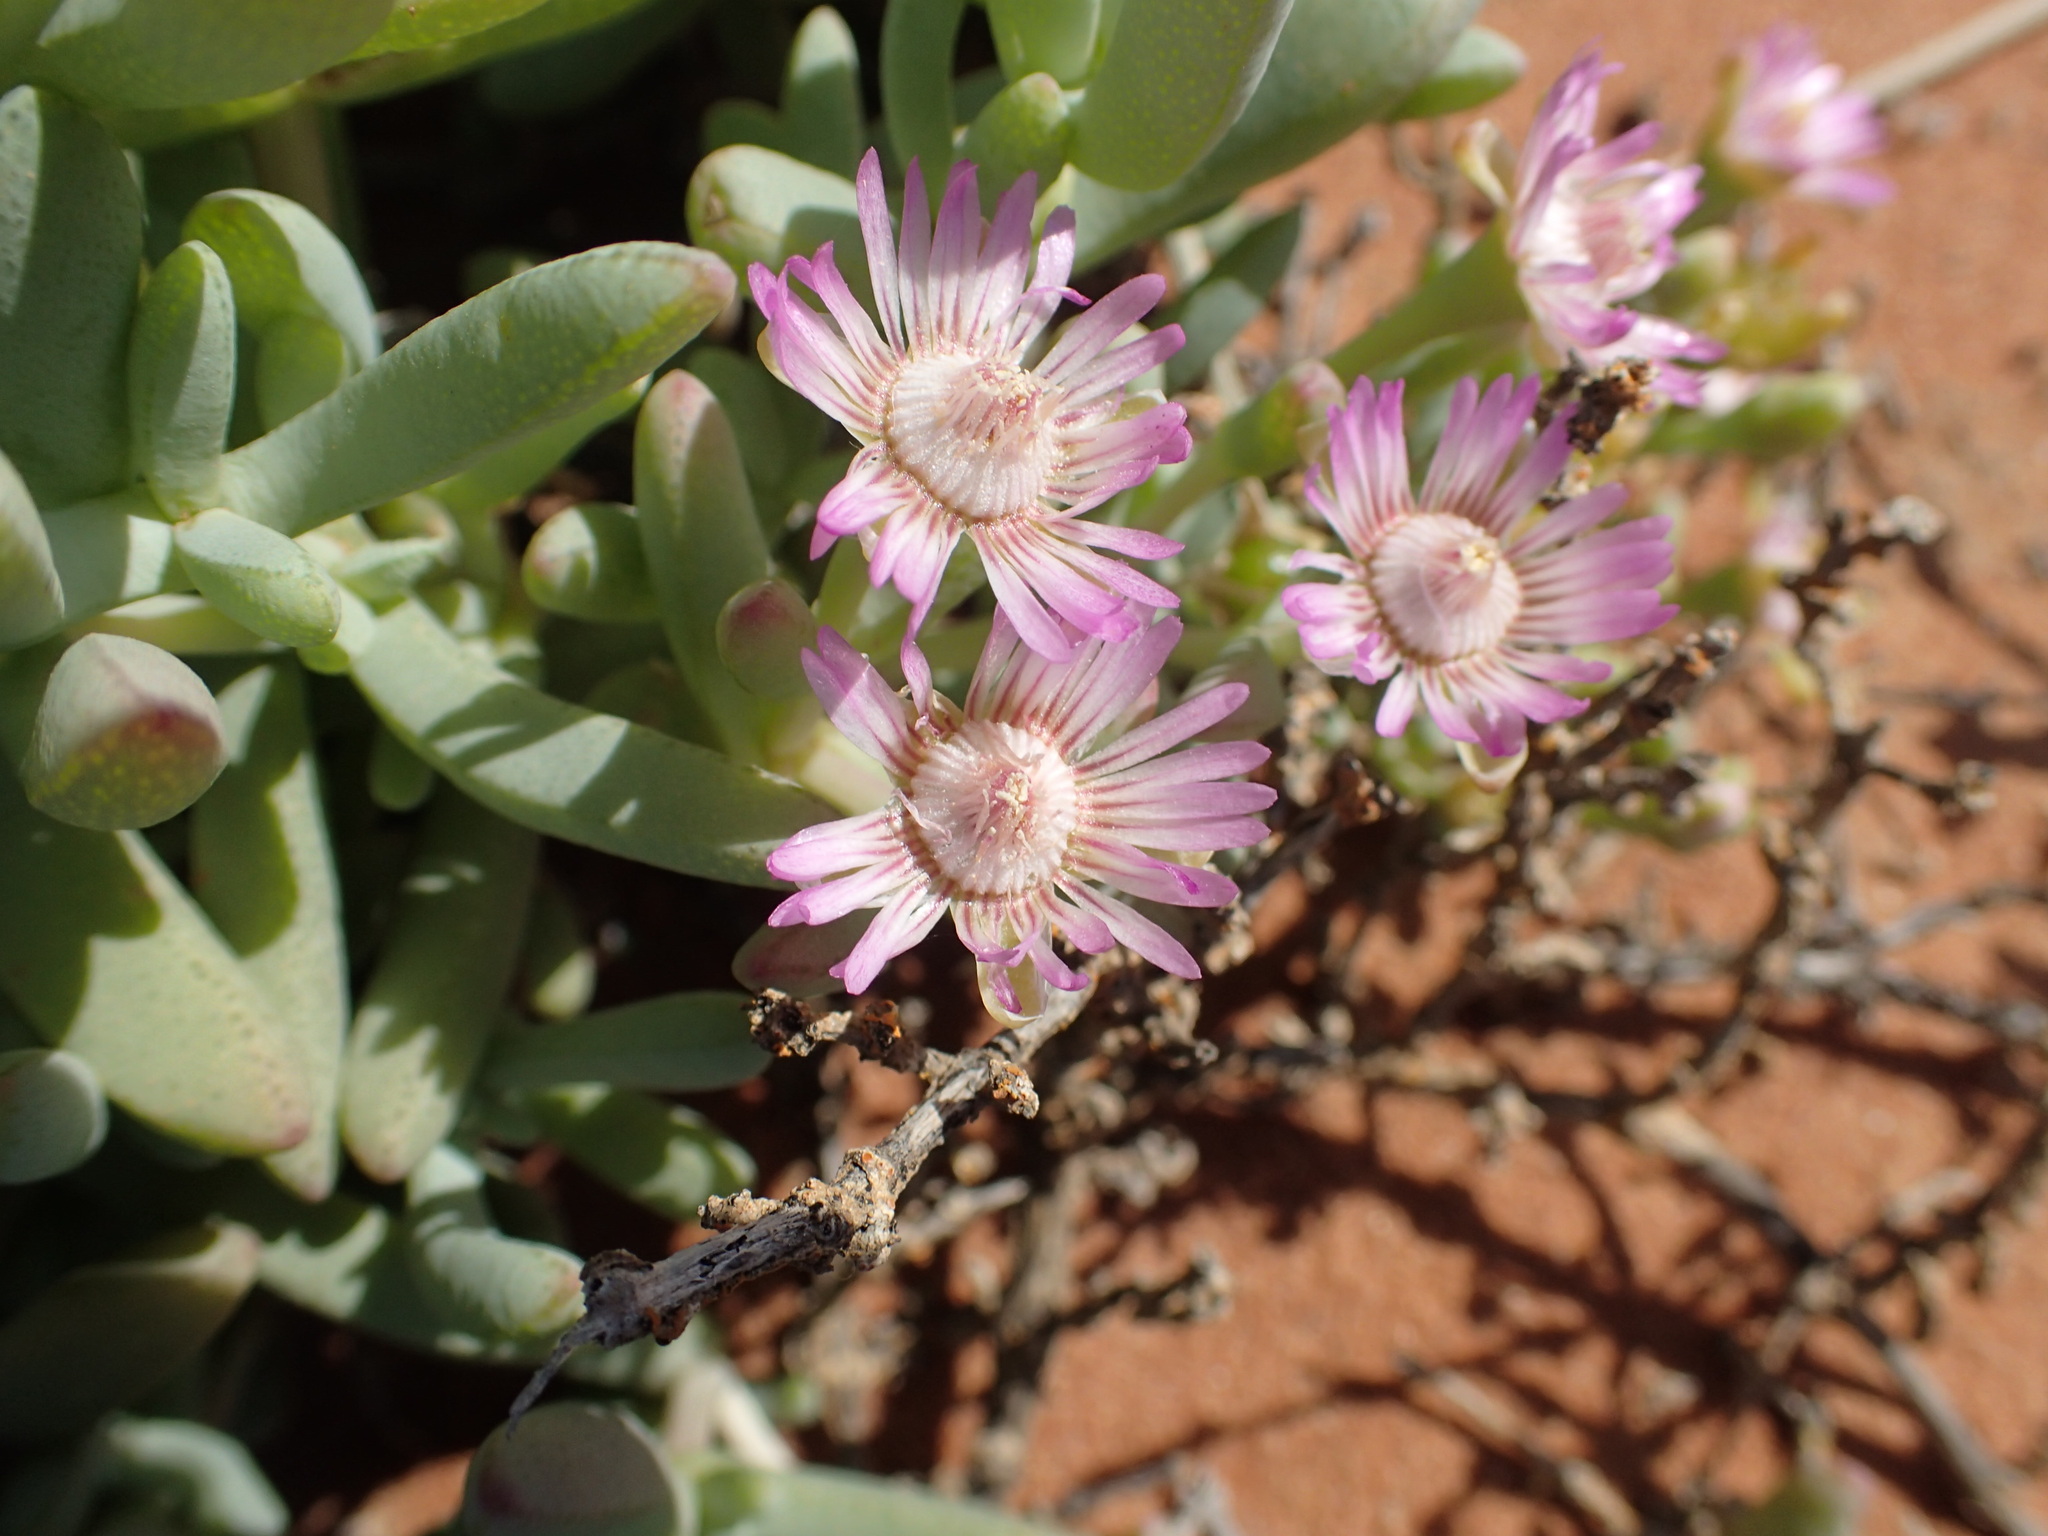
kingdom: Plantae
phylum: Tracheophyta
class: Magnoliopsida
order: Caryophyllales
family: Aizoaceae
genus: Stoeberia
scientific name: Stoeberia frutescens
